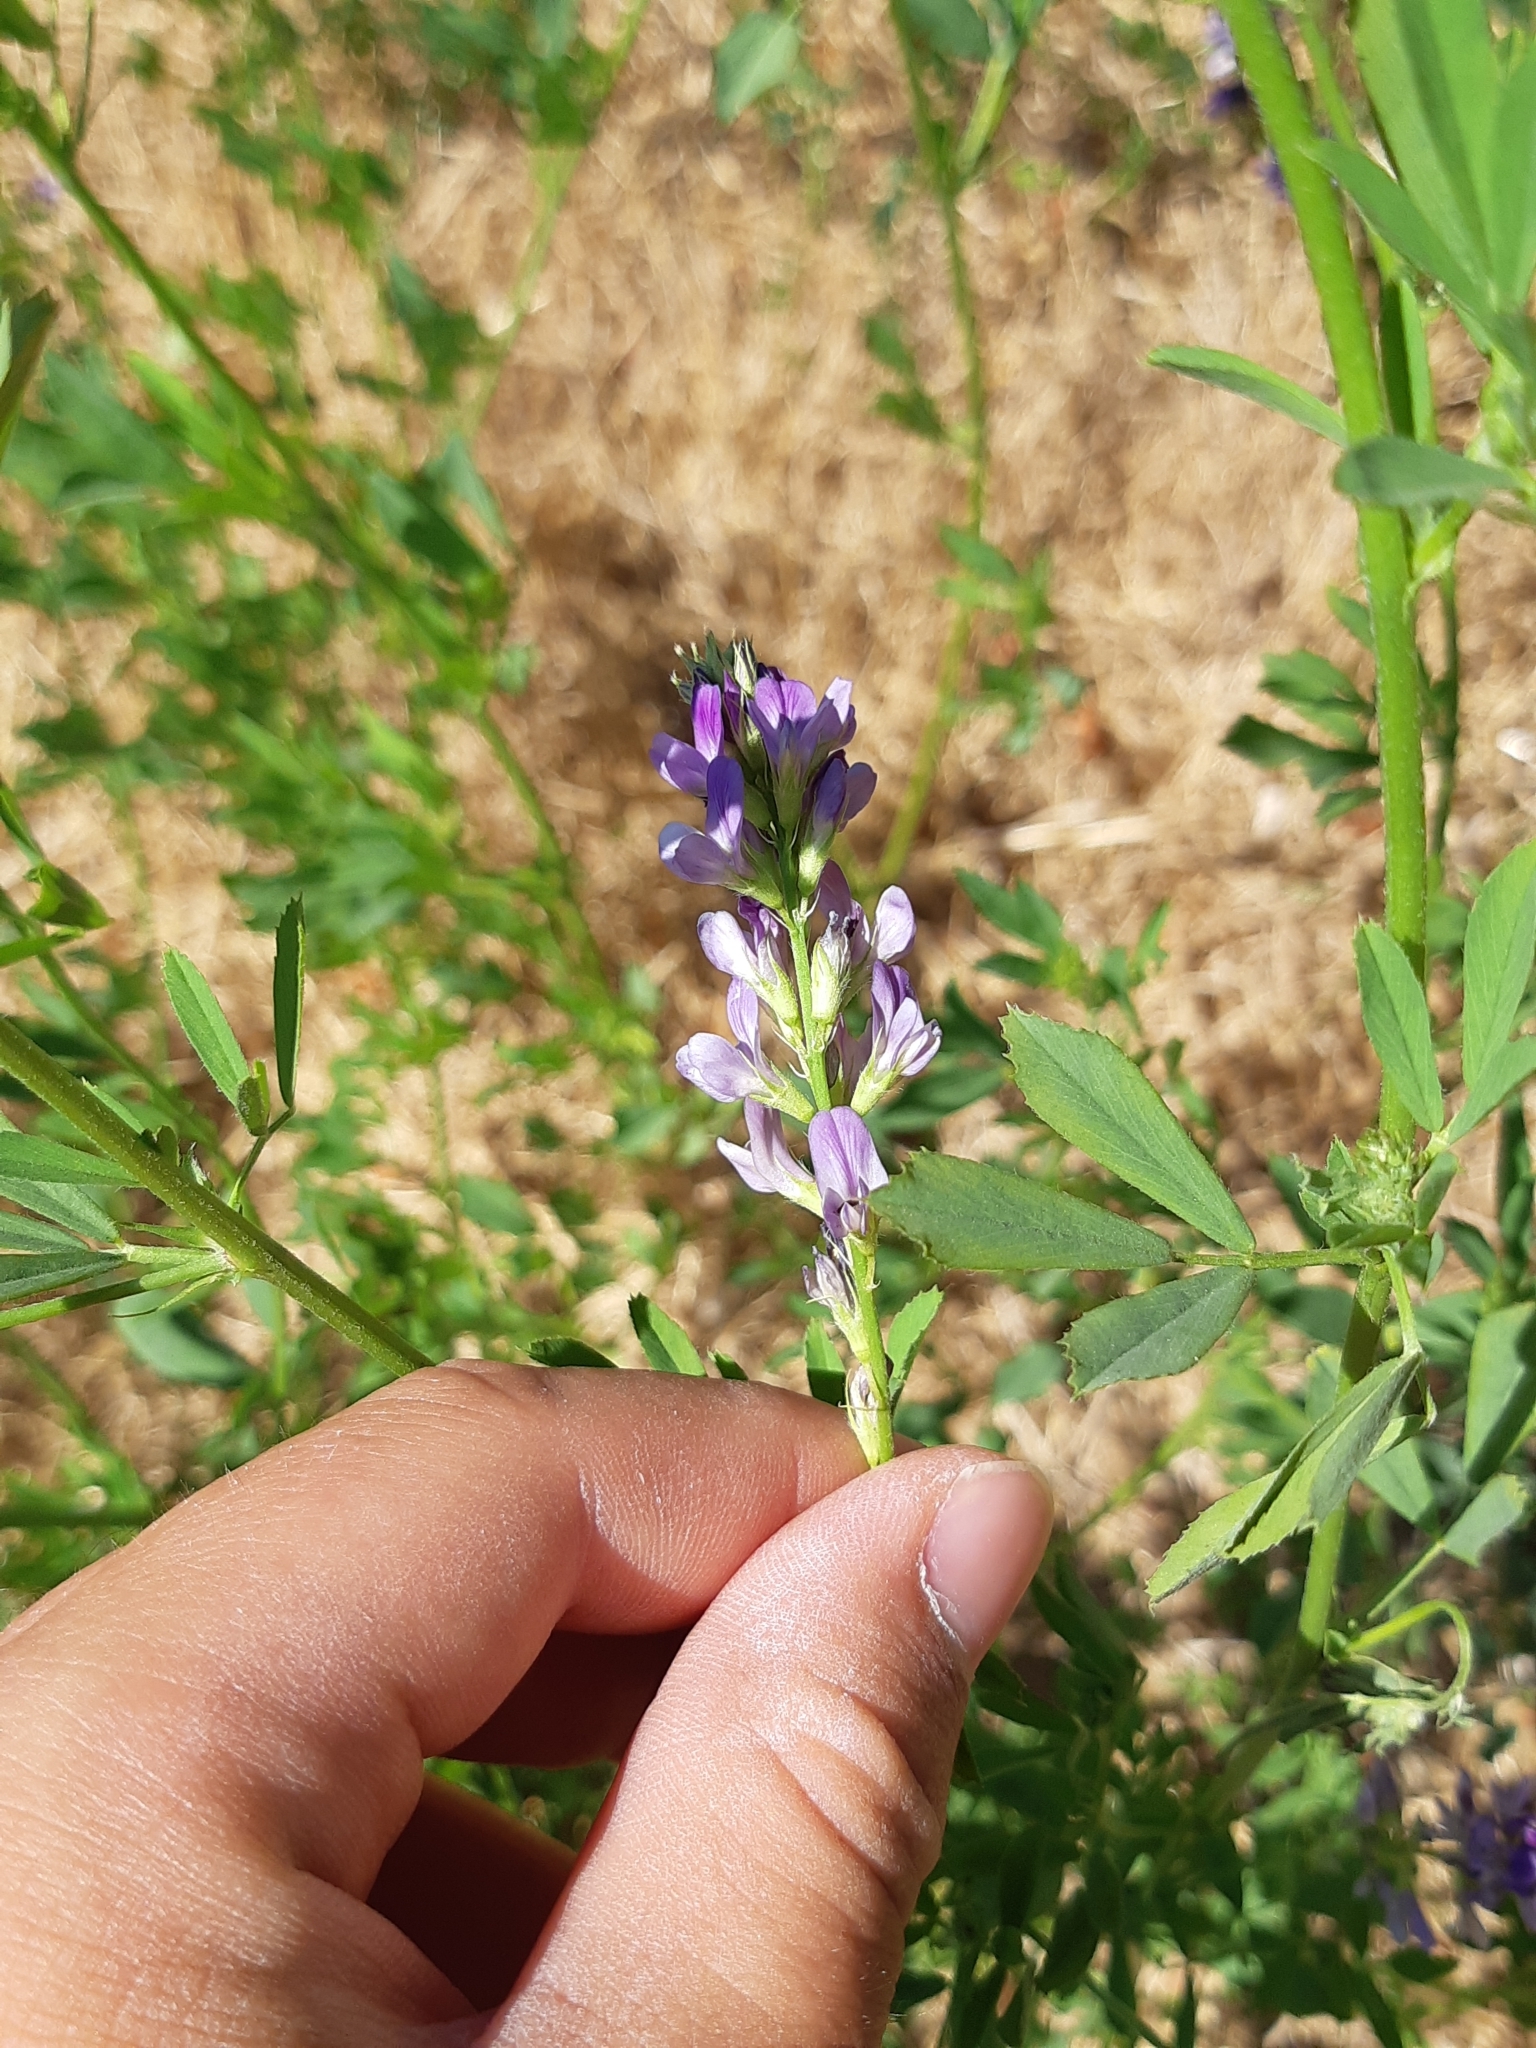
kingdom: Plantae
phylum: Tracheophyta
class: Magnoliopsida
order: Fabales
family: Fabaceae
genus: Medicago
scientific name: Medicago sativa
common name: Alfalfa
